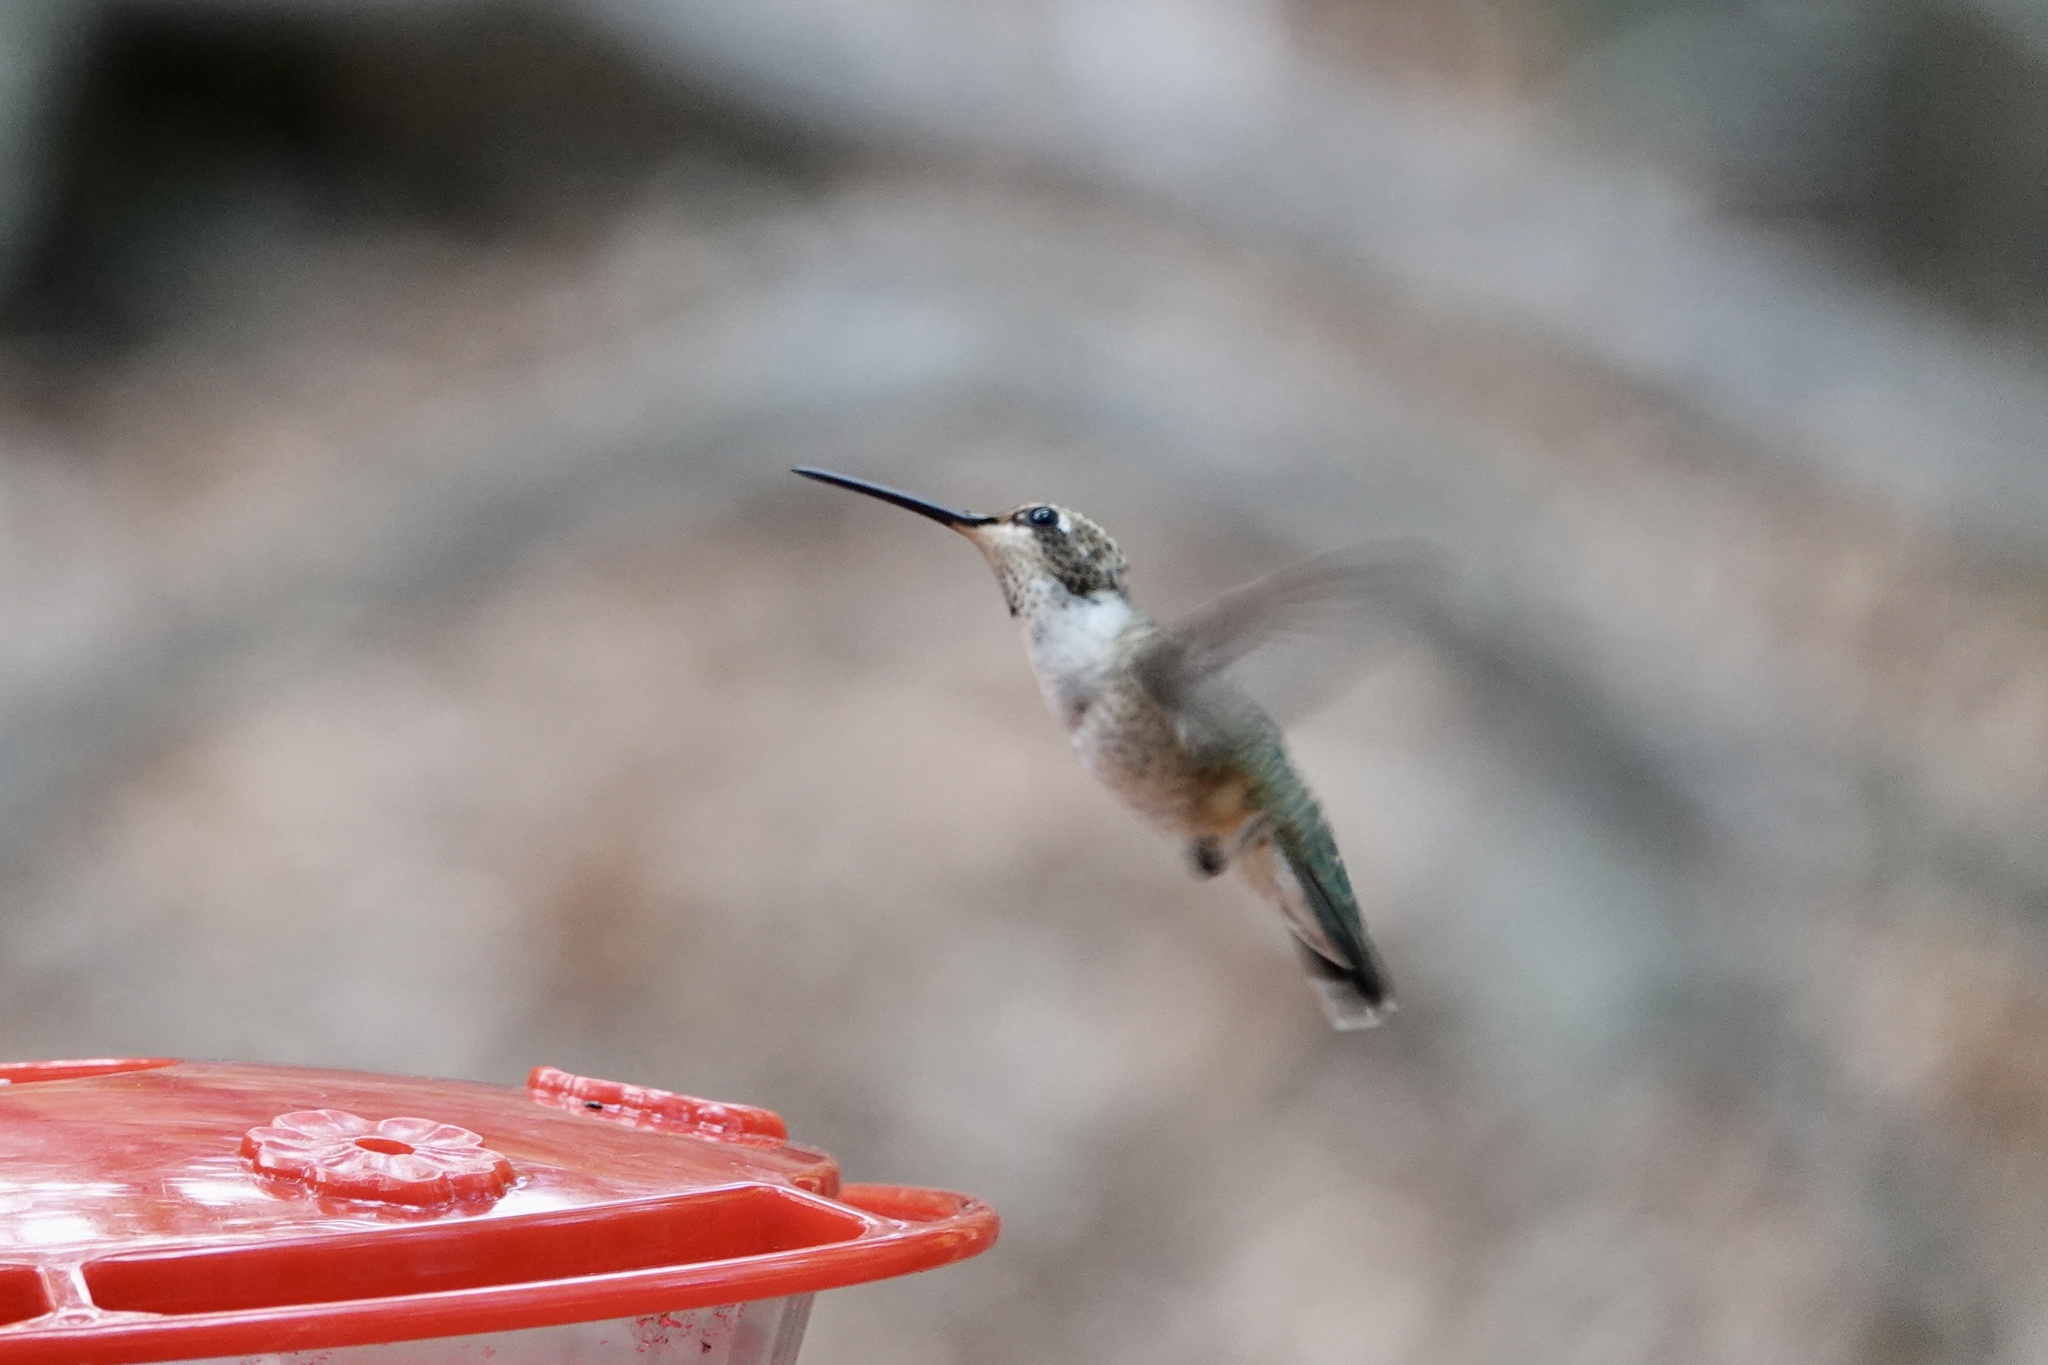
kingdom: Animalia
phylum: Chordata
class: Aves
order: Apodiformes
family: Trochilidae
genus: Archilochus
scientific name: Archilochus alexandri
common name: Black-chinned hummingbird
